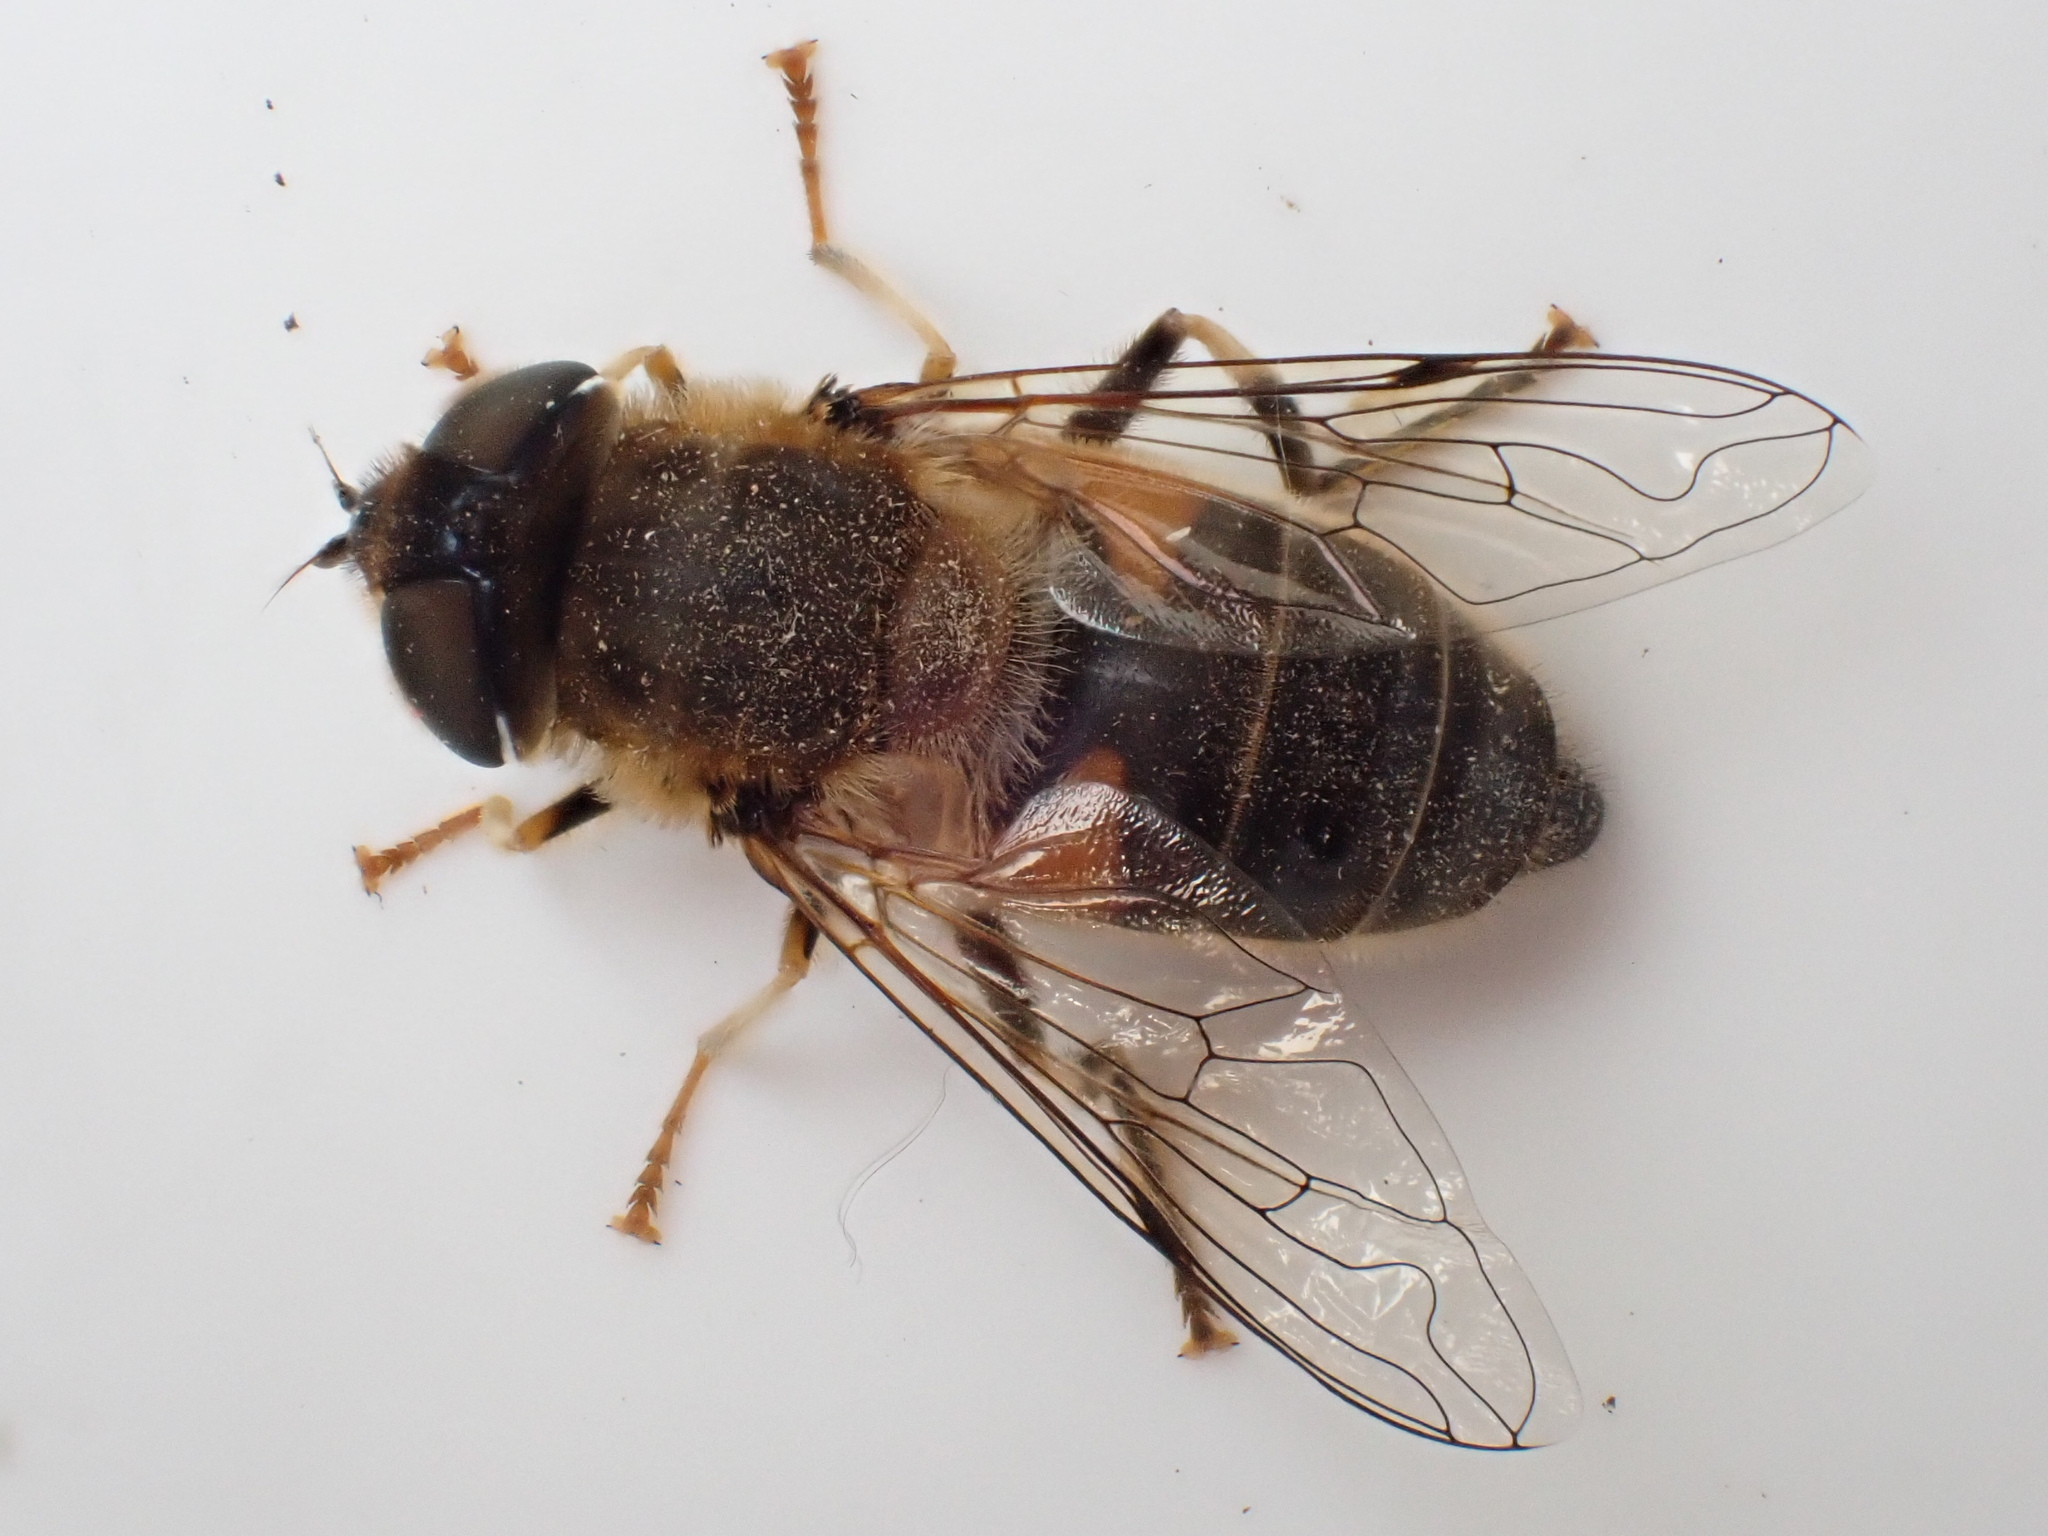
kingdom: Animalia
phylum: Arthropoda
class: Insecta
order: Diptera
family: Syrphidae
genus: Eristalis
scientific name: Eristalis pertinax
